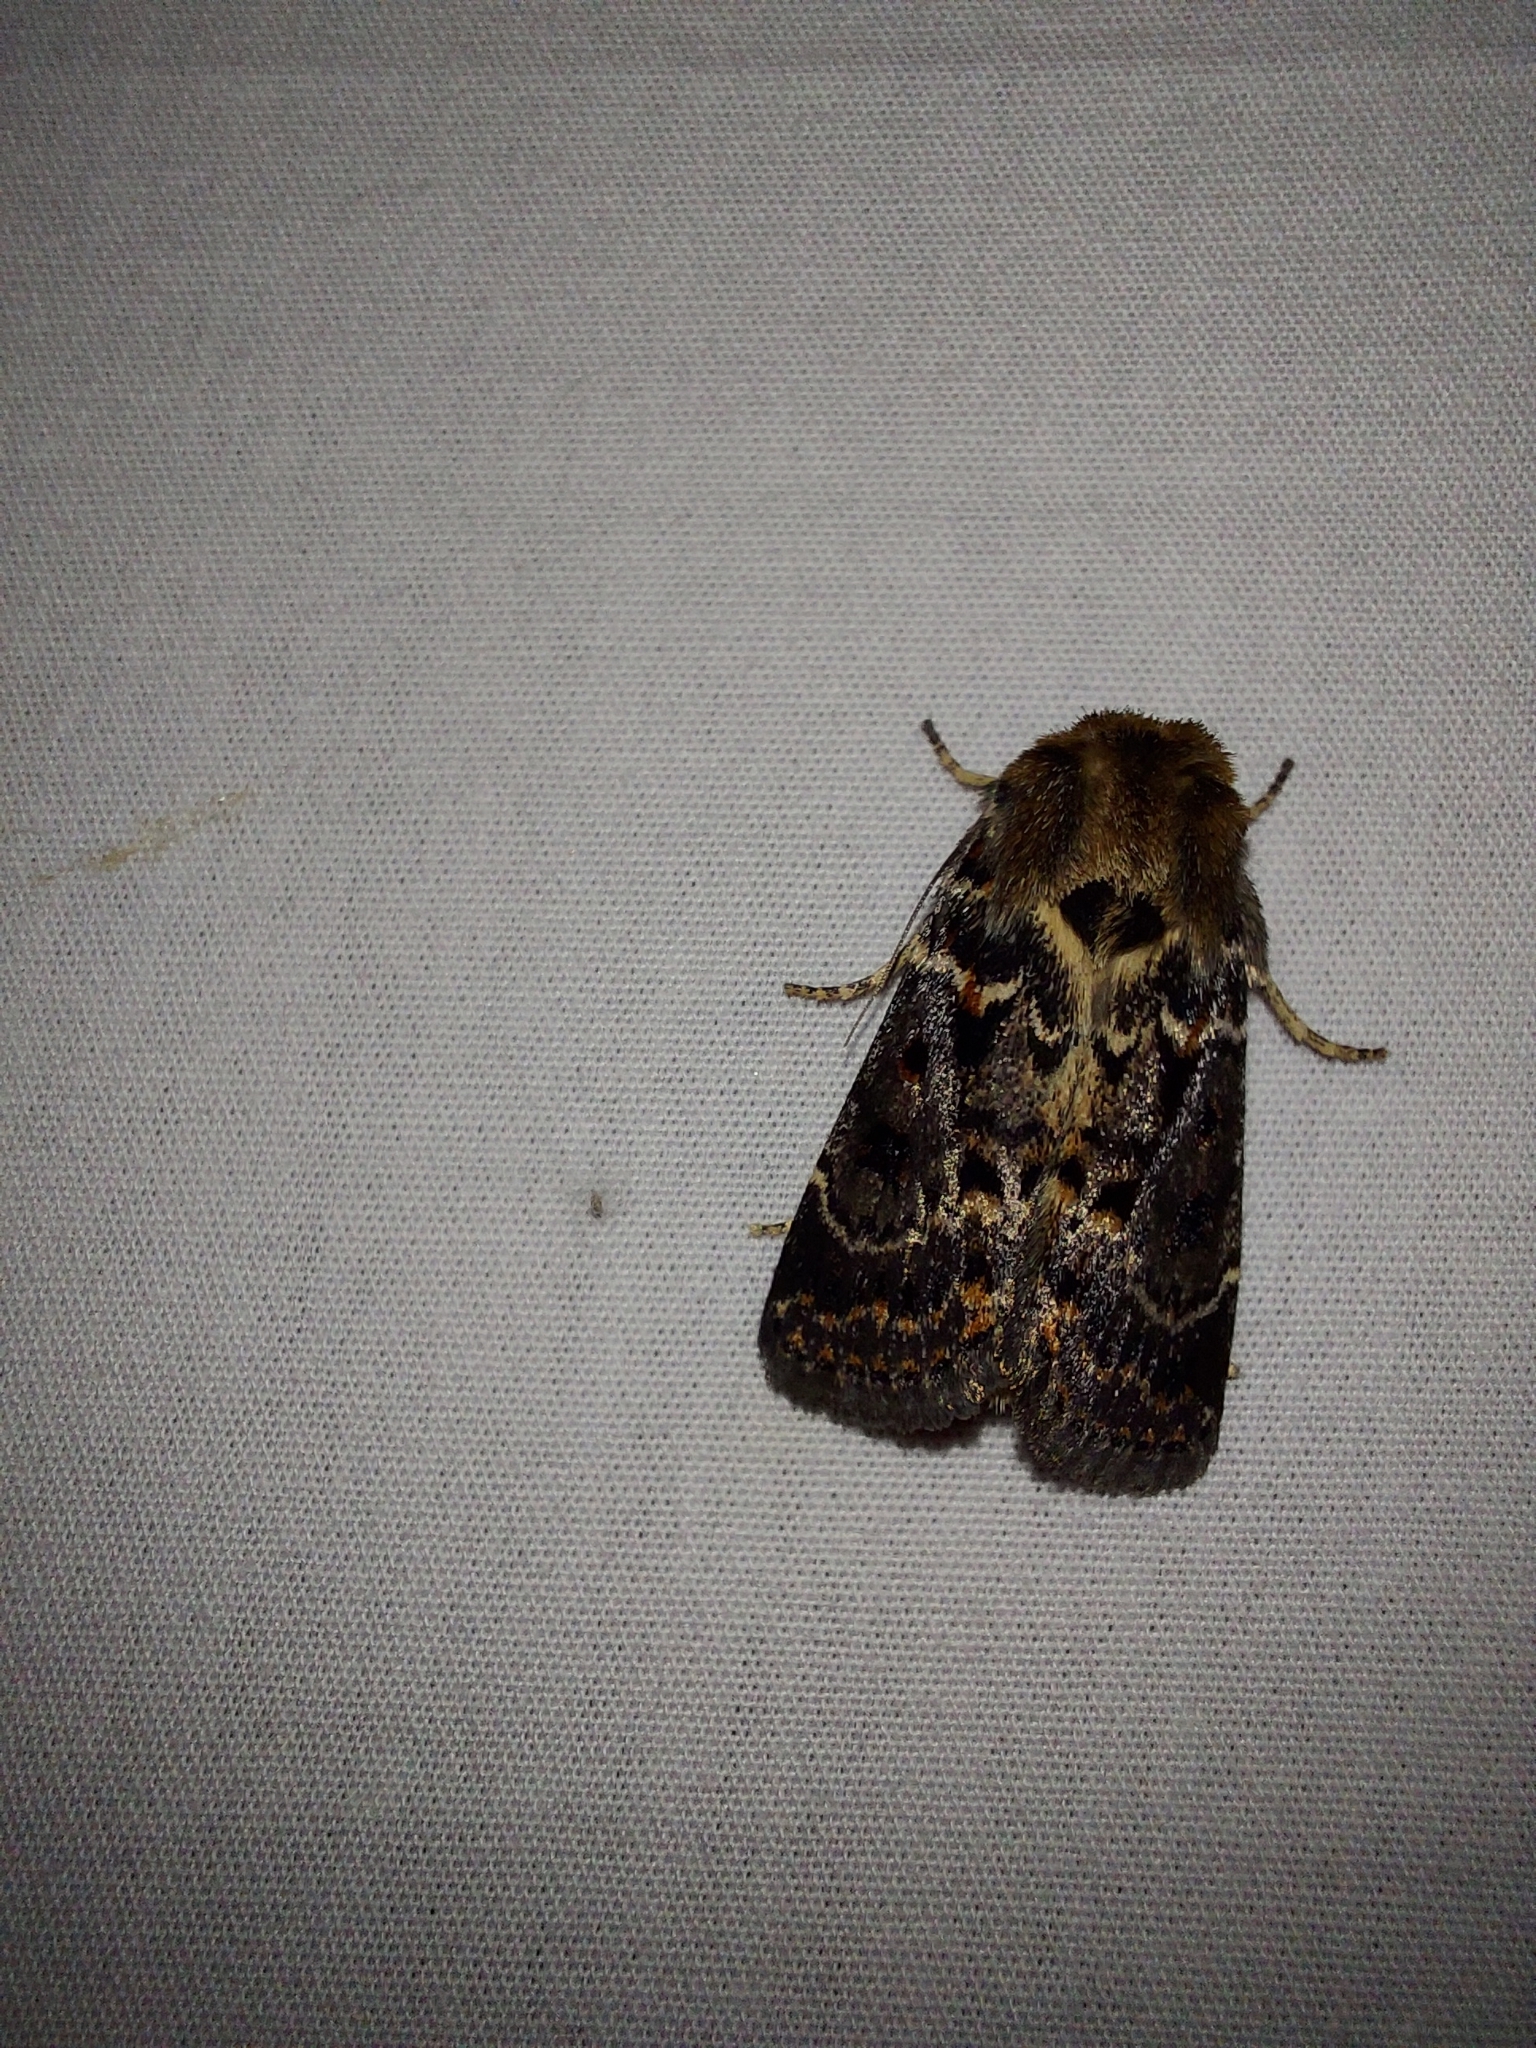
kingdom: Animalia
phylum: Arthropoda
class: Insecta
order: Lepidoptera
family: Noctuidae
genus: Proteuxoa
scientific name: Proteuxoa sanguinipuncta
